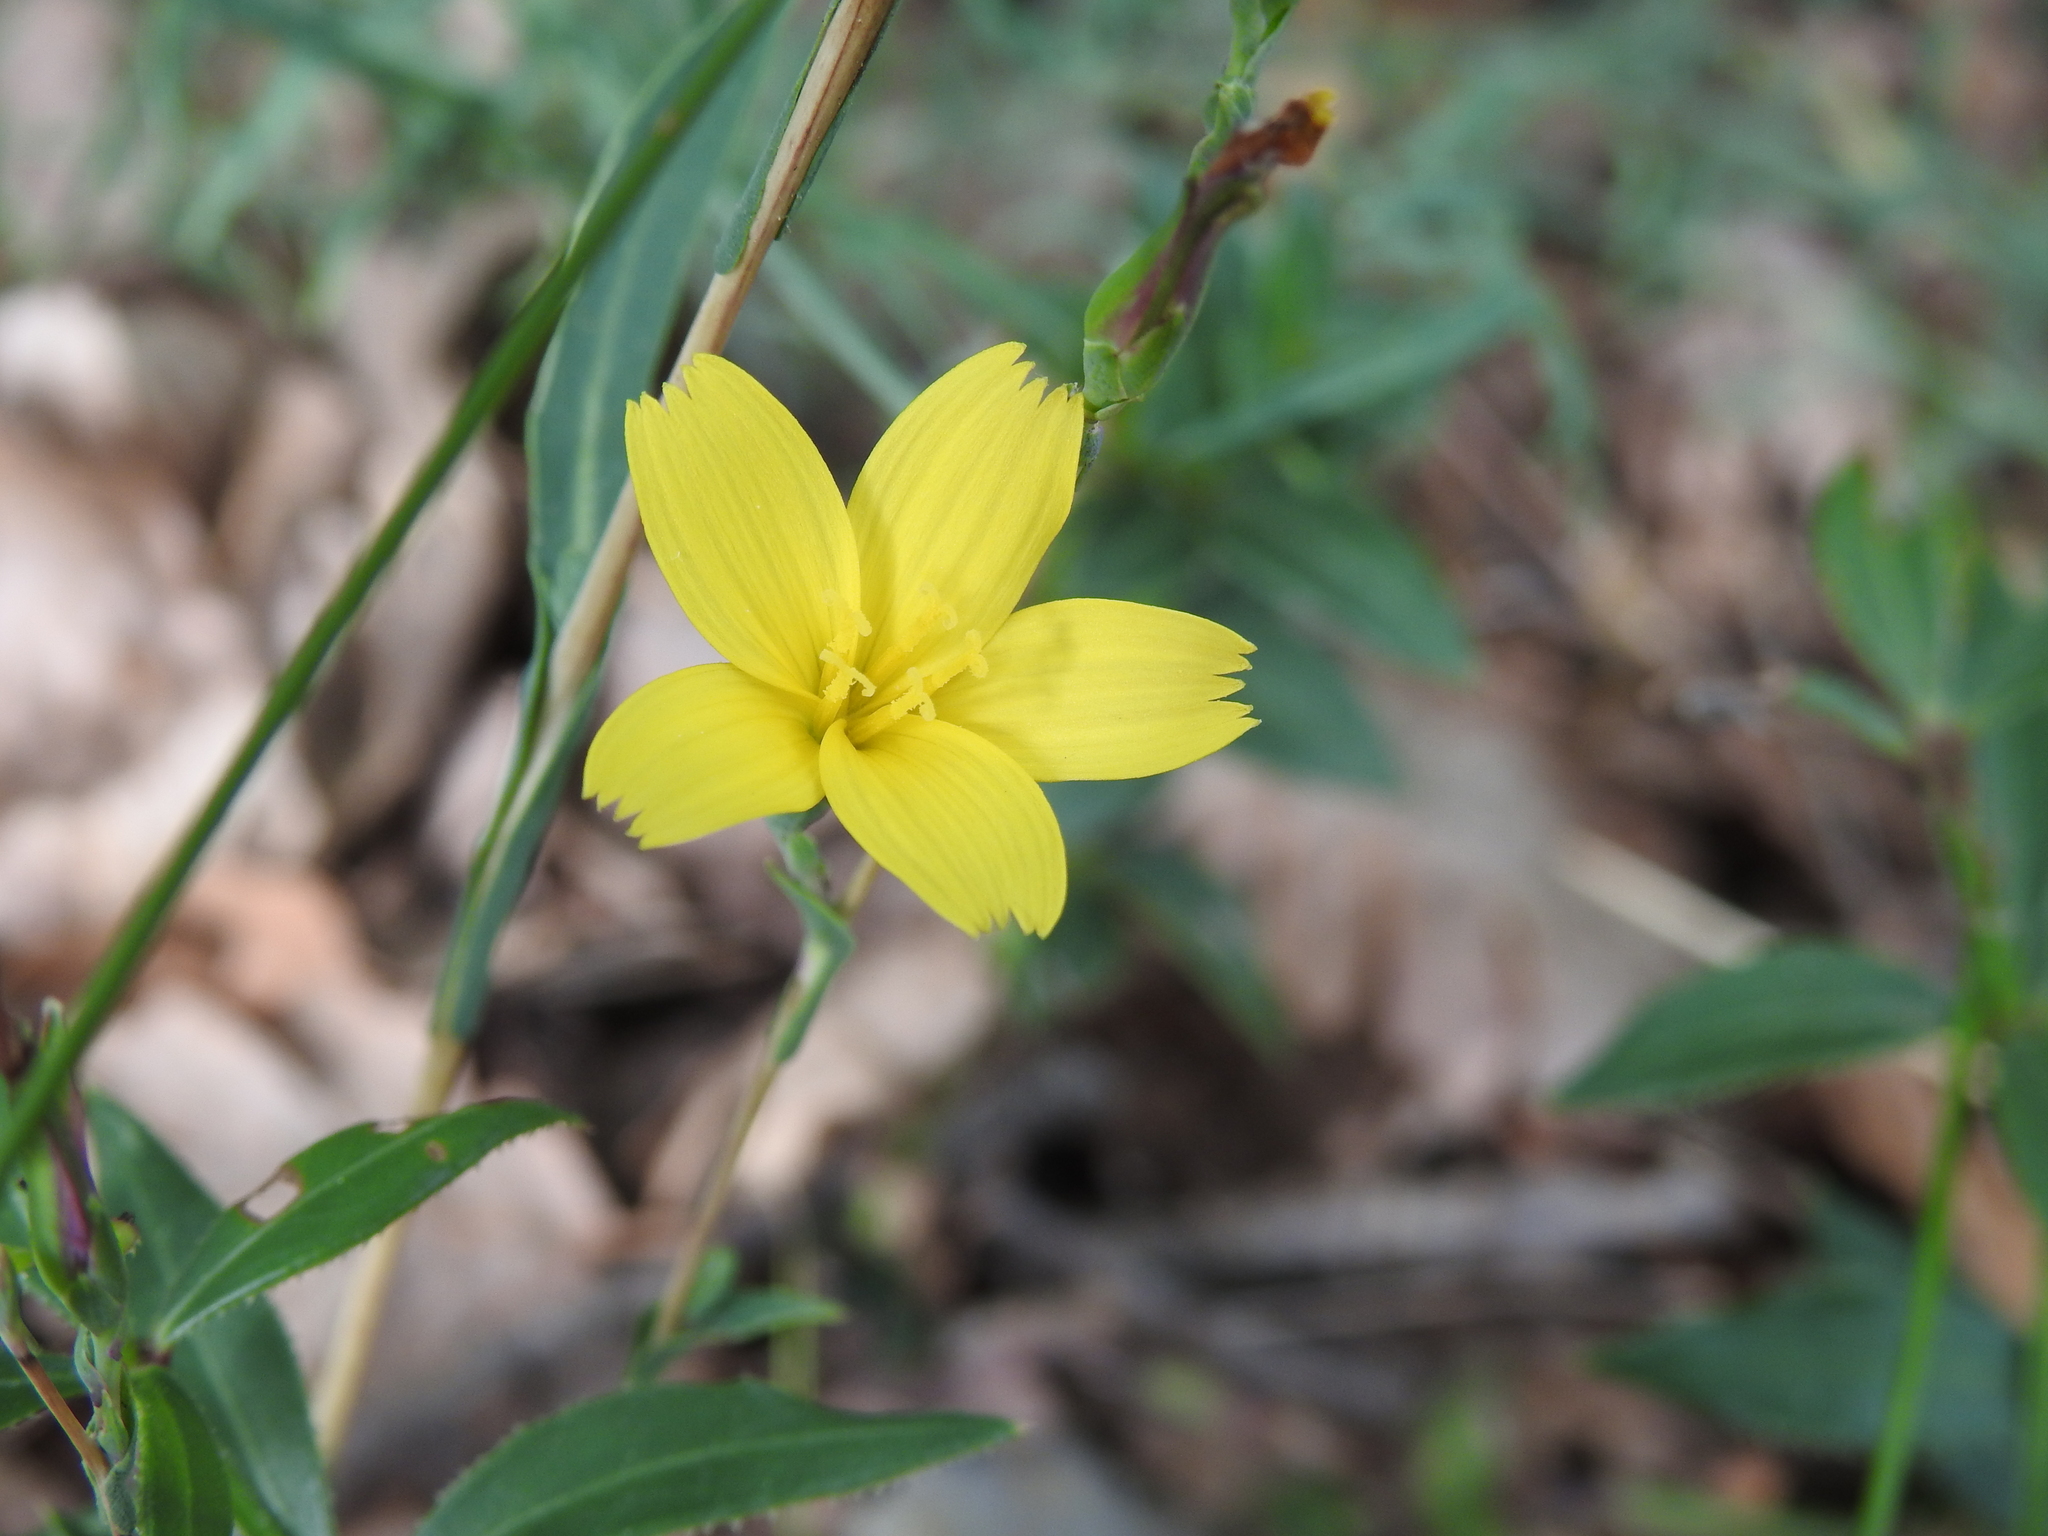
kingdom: Plantae
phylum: Tracheophyta
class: Magnoliopsida
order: Asterales
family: Asteraceae
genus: Lactuca
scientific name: Lactuca viminea
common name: Pliant lettuce
